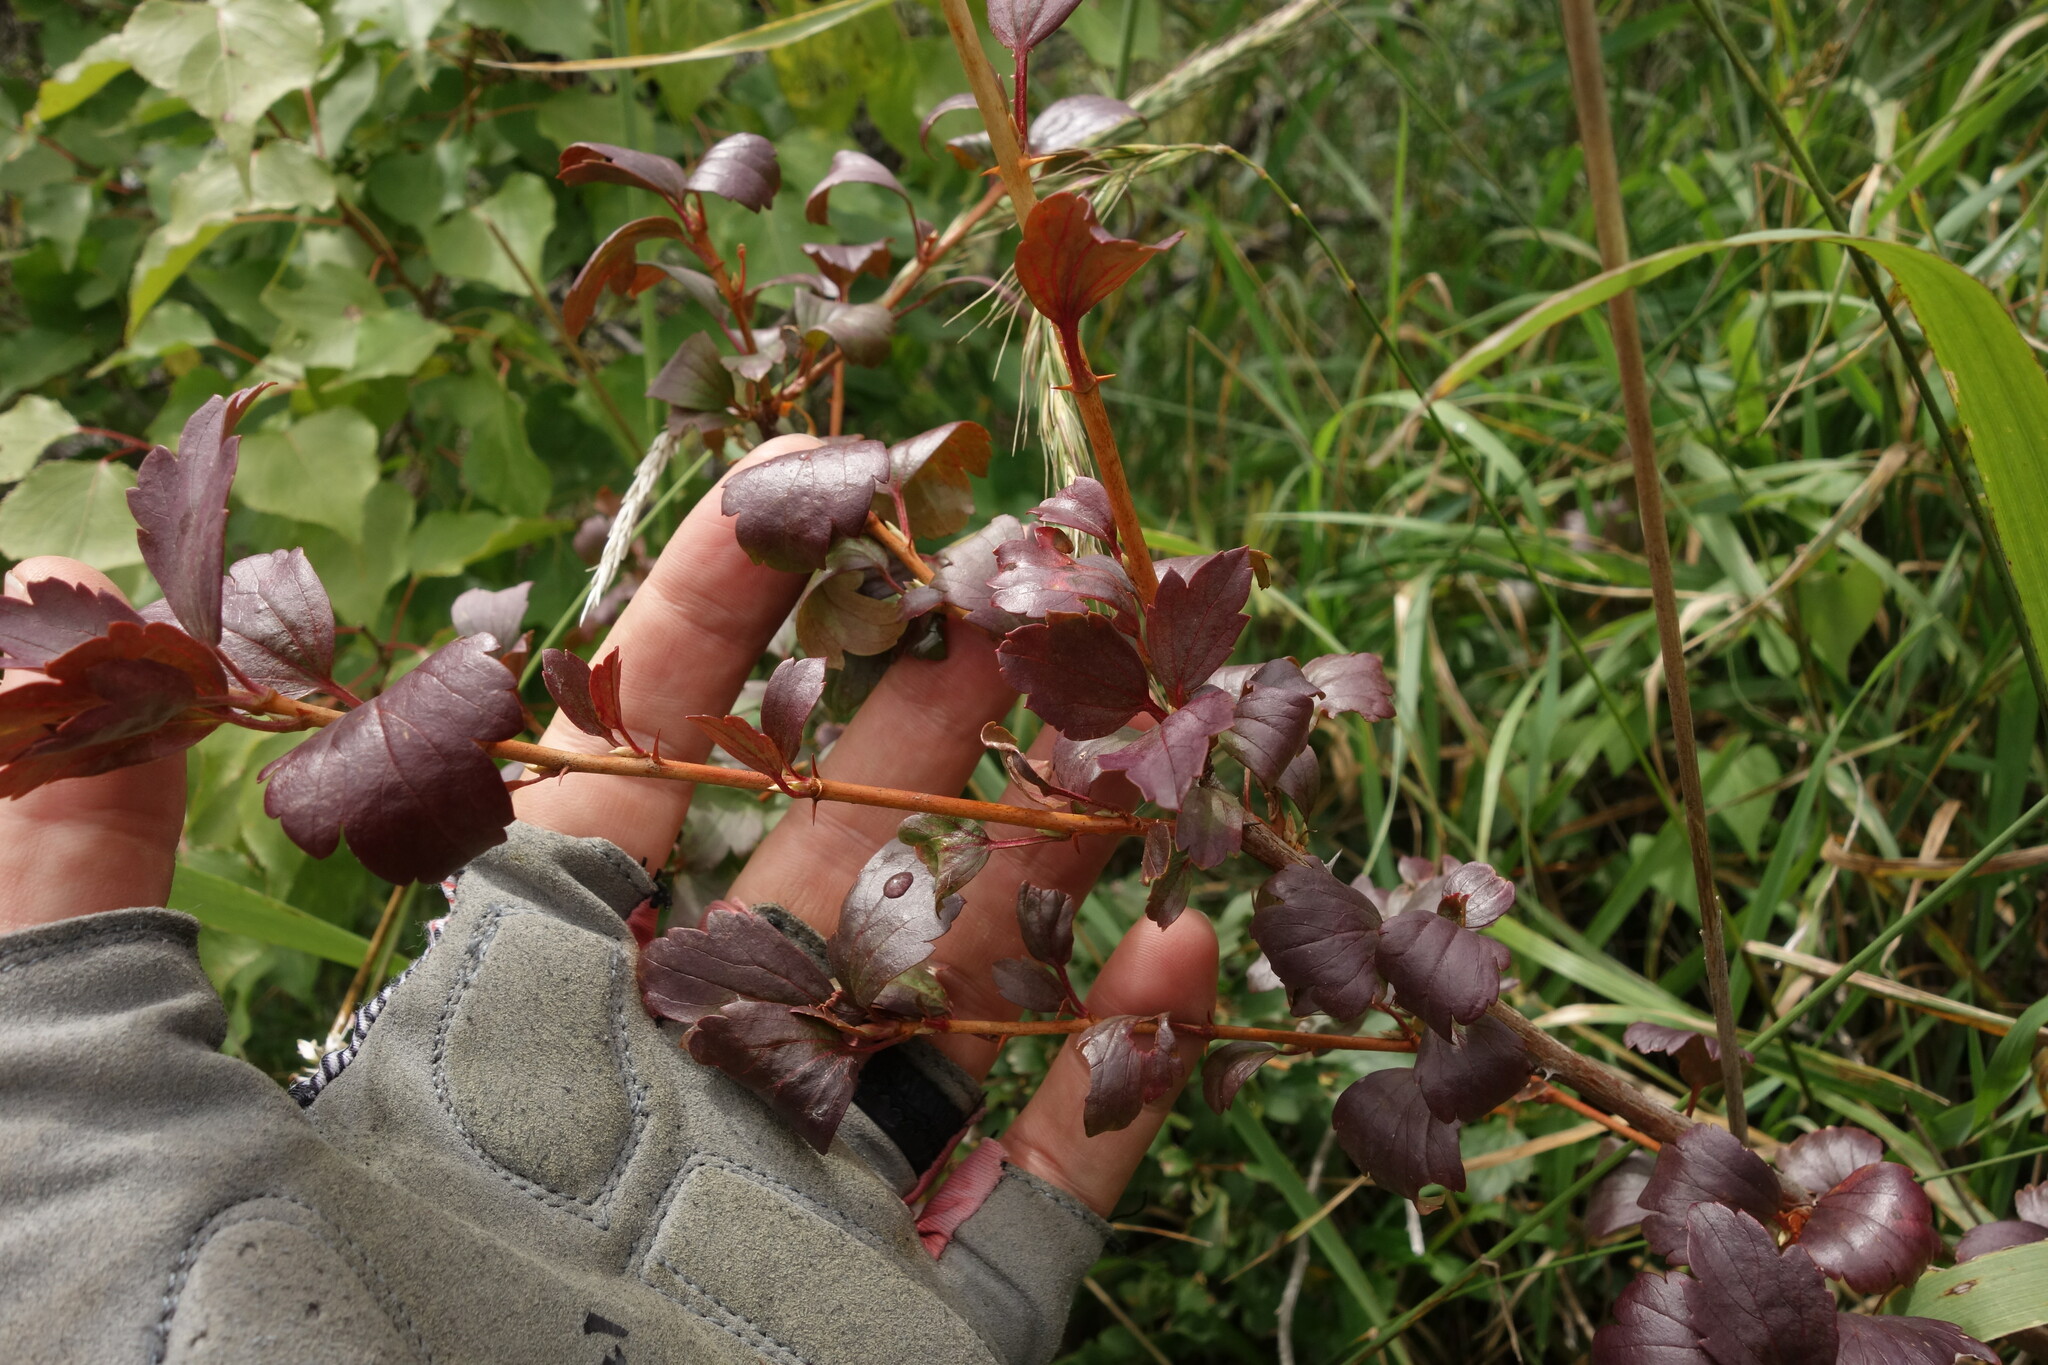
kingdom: Plantae
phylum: Tracheophyta
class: Magnoliopsida
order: Saxifragales
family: Grossulariaceae
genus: Ribes
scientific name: Ribes diacanthum
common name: Siberian currant
